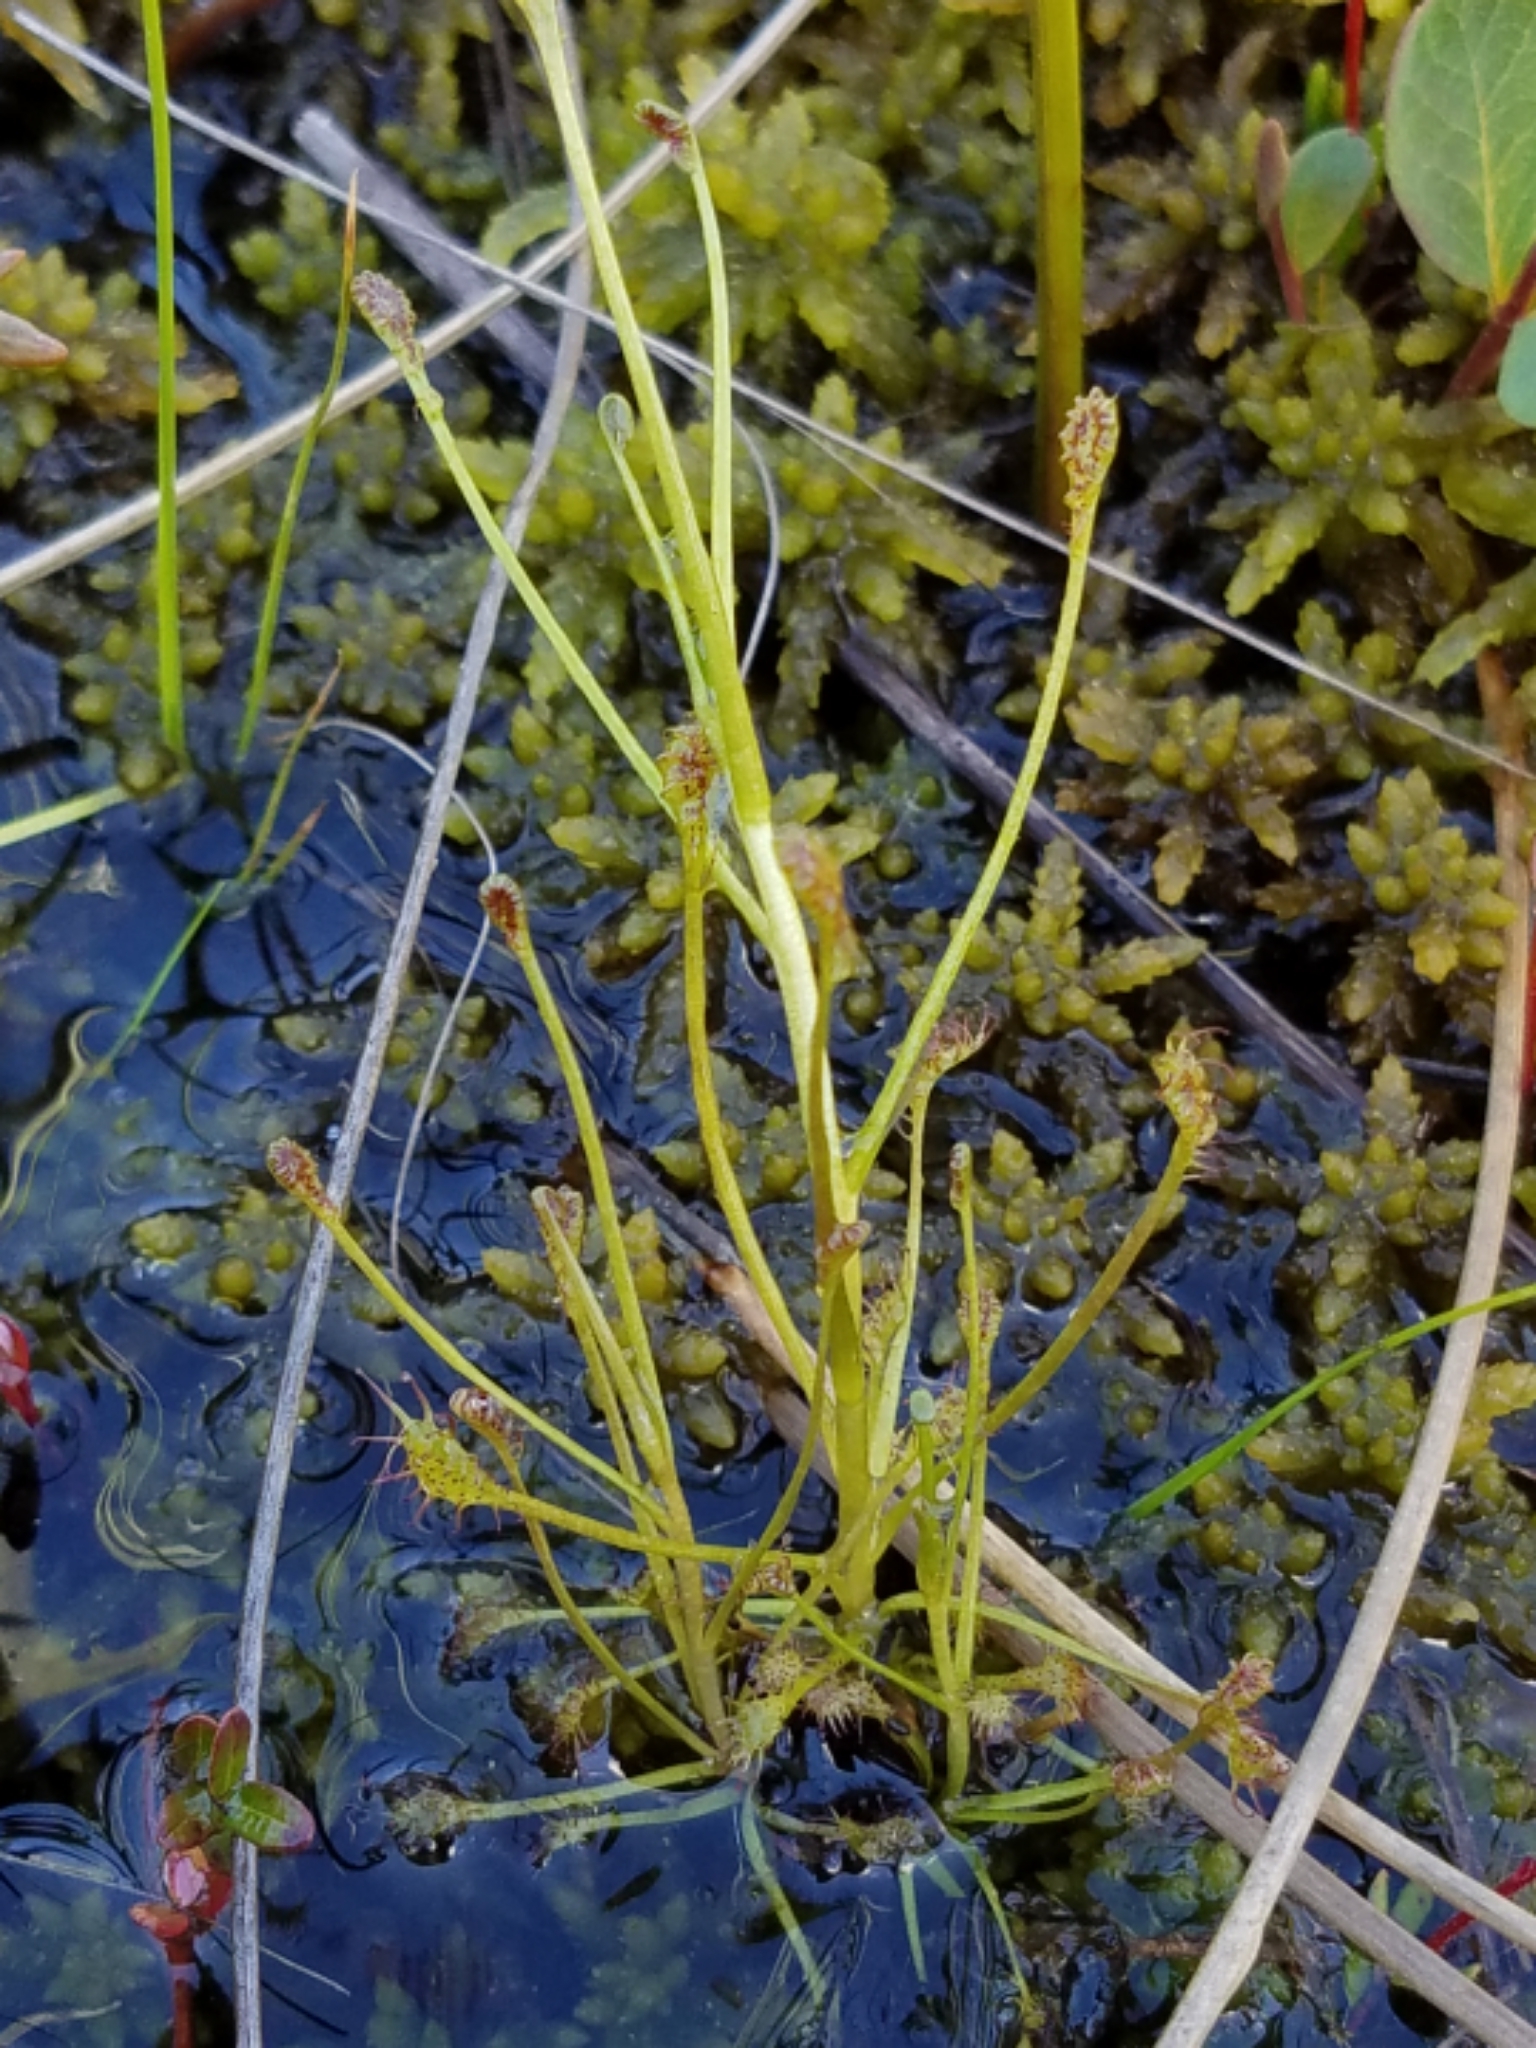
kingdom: Plantae
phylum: Tracheophyta
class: Magnoliopsida
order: Caryophyllales
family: Droseraceae
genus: Drosera
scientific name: Drosera intermedia
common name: Oblong-leaved sundew
